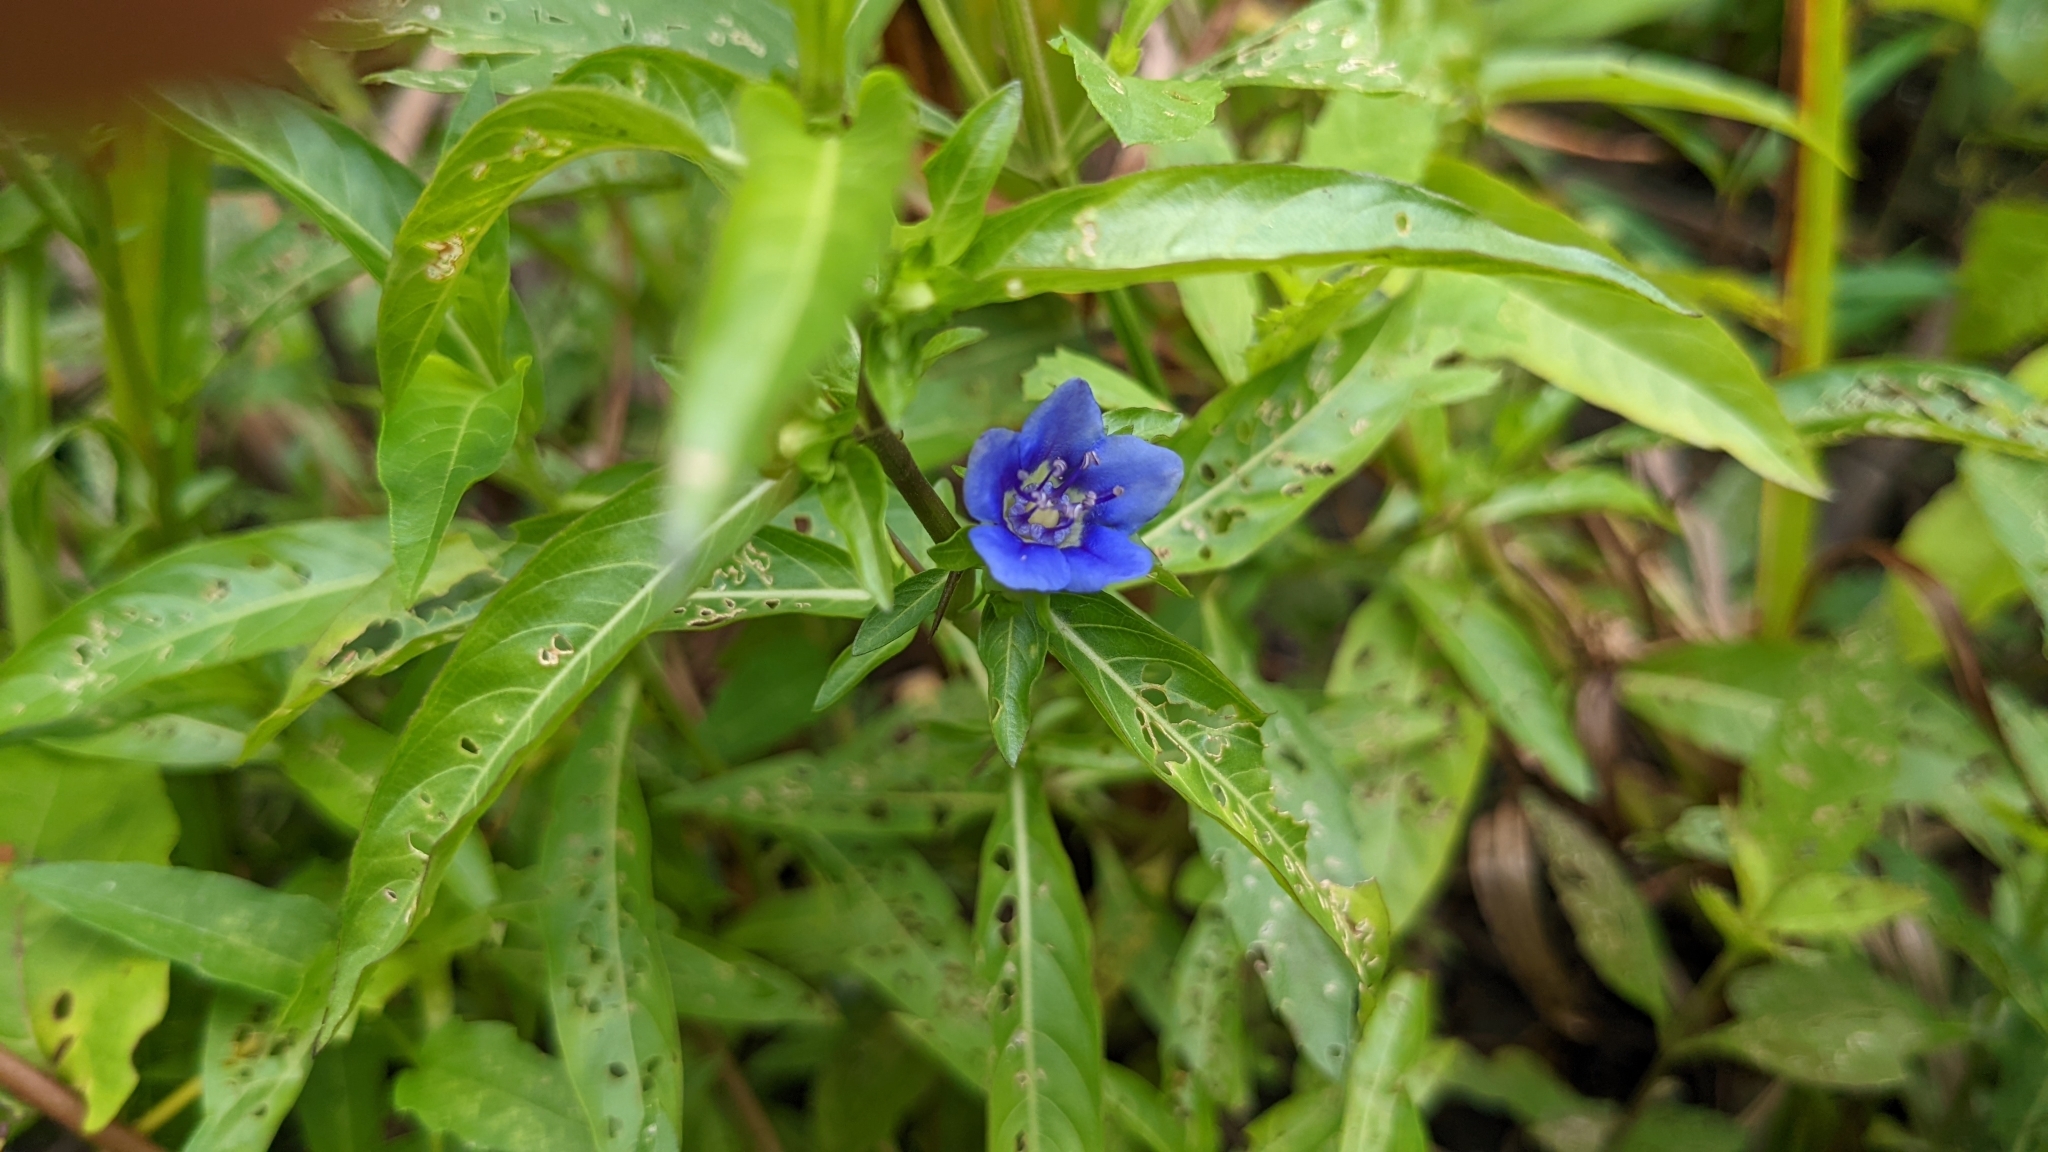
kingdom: Plantae
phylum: Tracheophyta
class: Magnoliopsida
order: Solanales
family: Hydroleaceae
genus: Hydrolea
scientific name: Hydrolea uniflora
